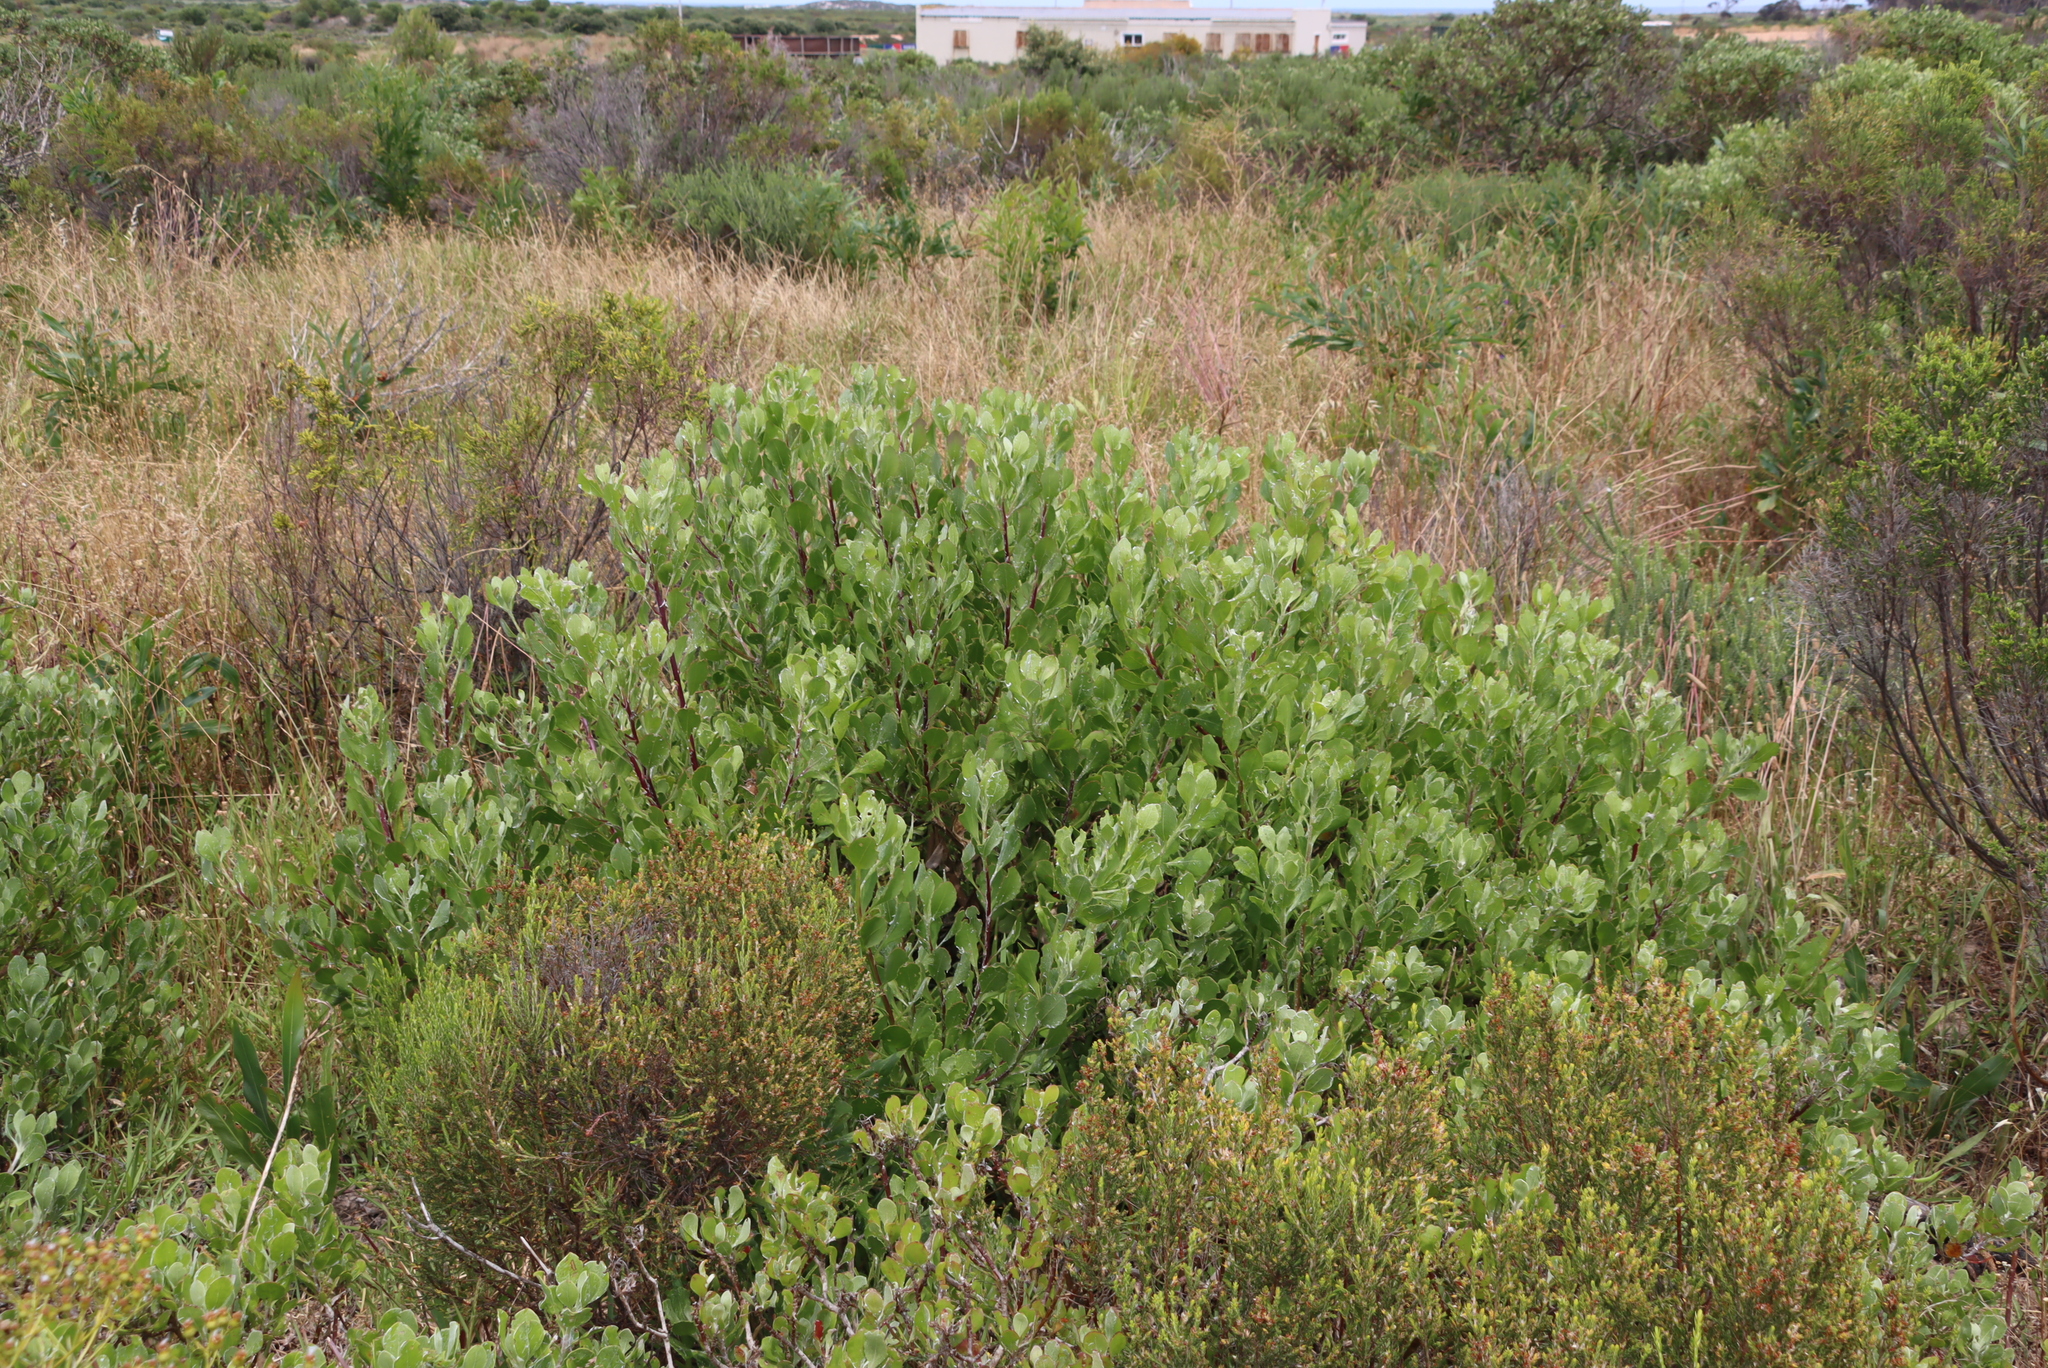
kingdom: Plantae
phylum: Tracheophyta
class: Magnoliopsida
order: Asterales
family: Asteraceae
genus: Osteospermum
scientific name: Osteospermum moniliferum
